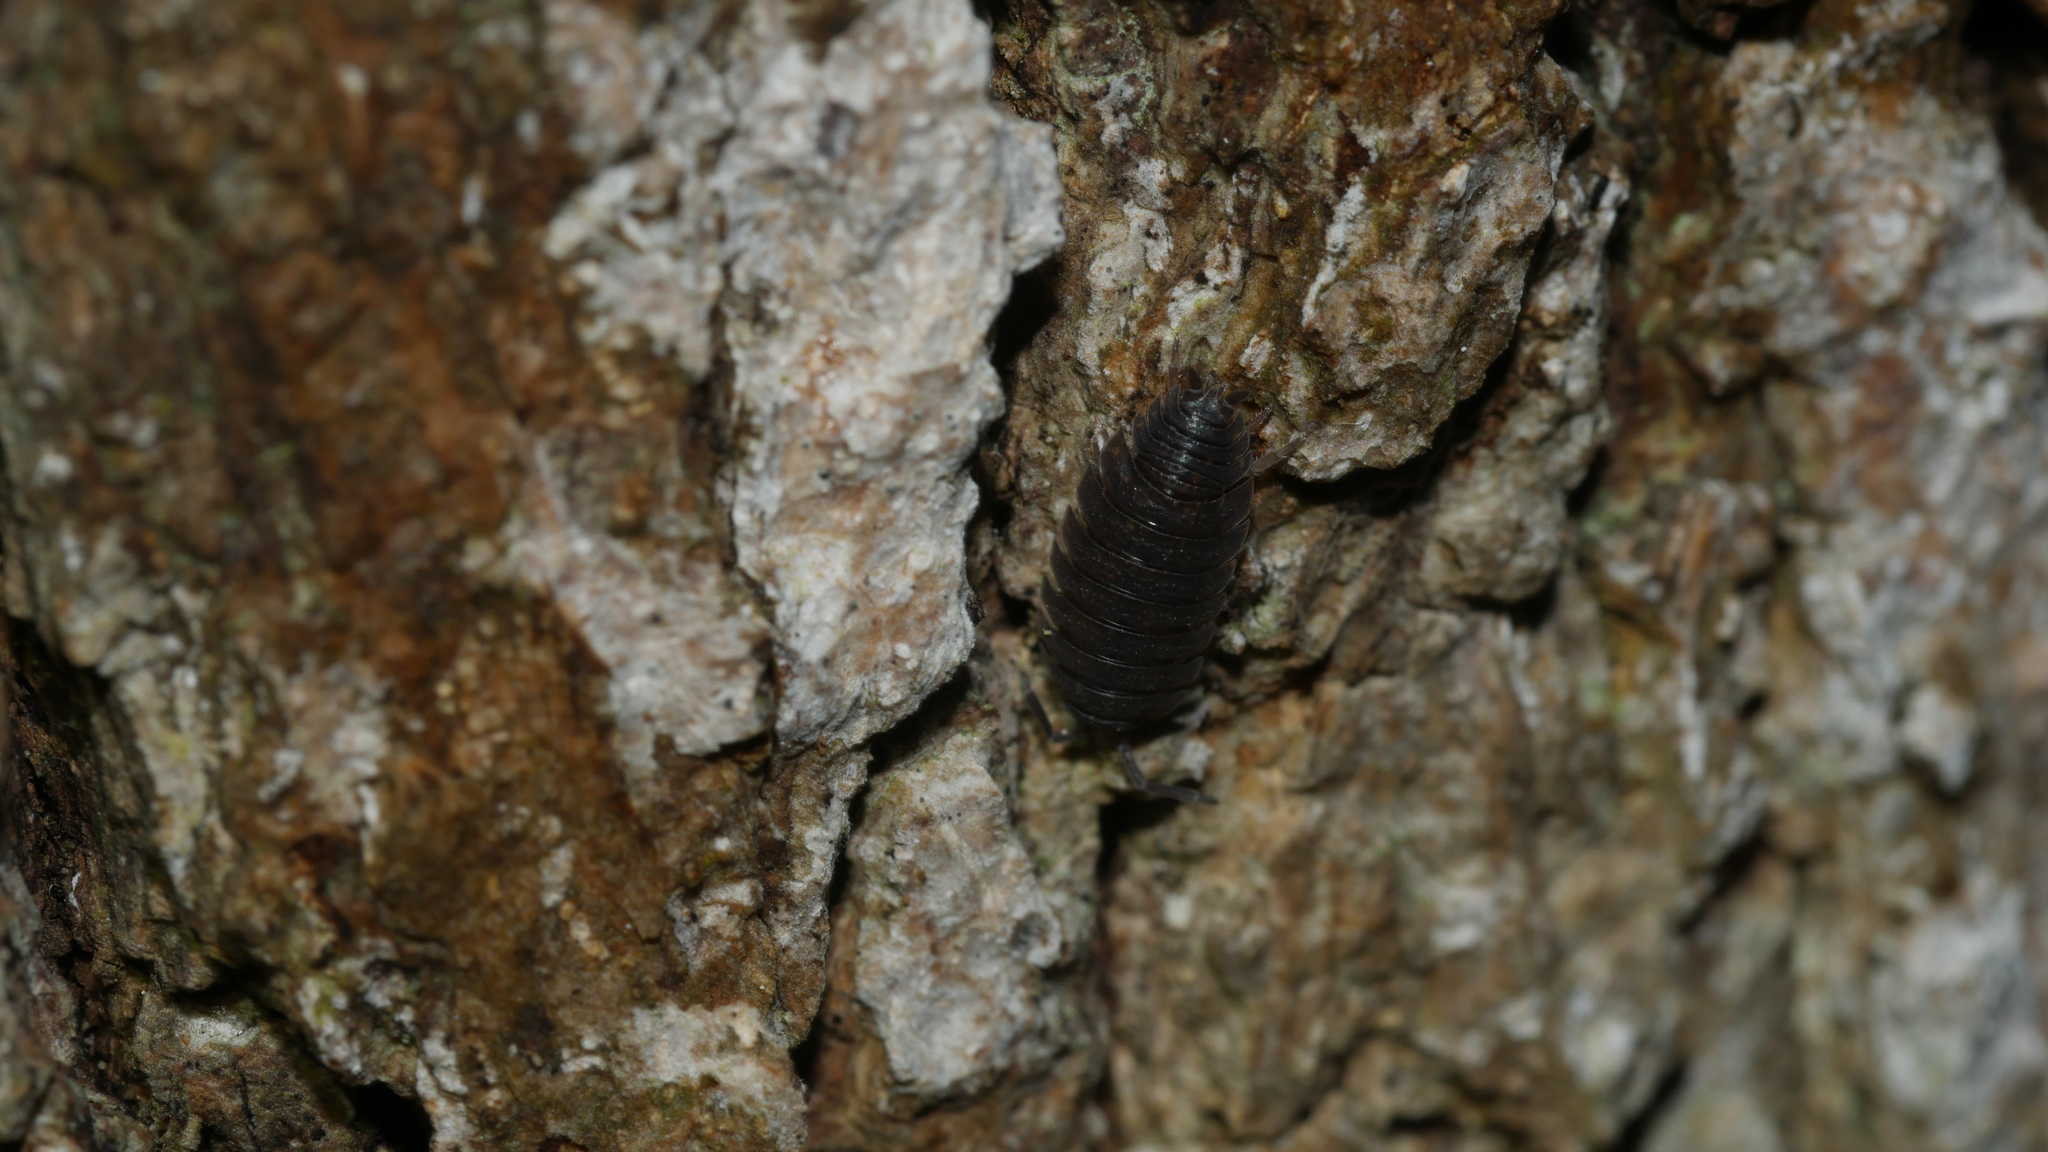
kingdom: Animalia
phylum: Arthropoda
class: Malacostraca
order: Isopoda
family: Porcellionidae
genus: Porcellio
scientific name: Porcellio scaber
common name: Common rough woodlouse
